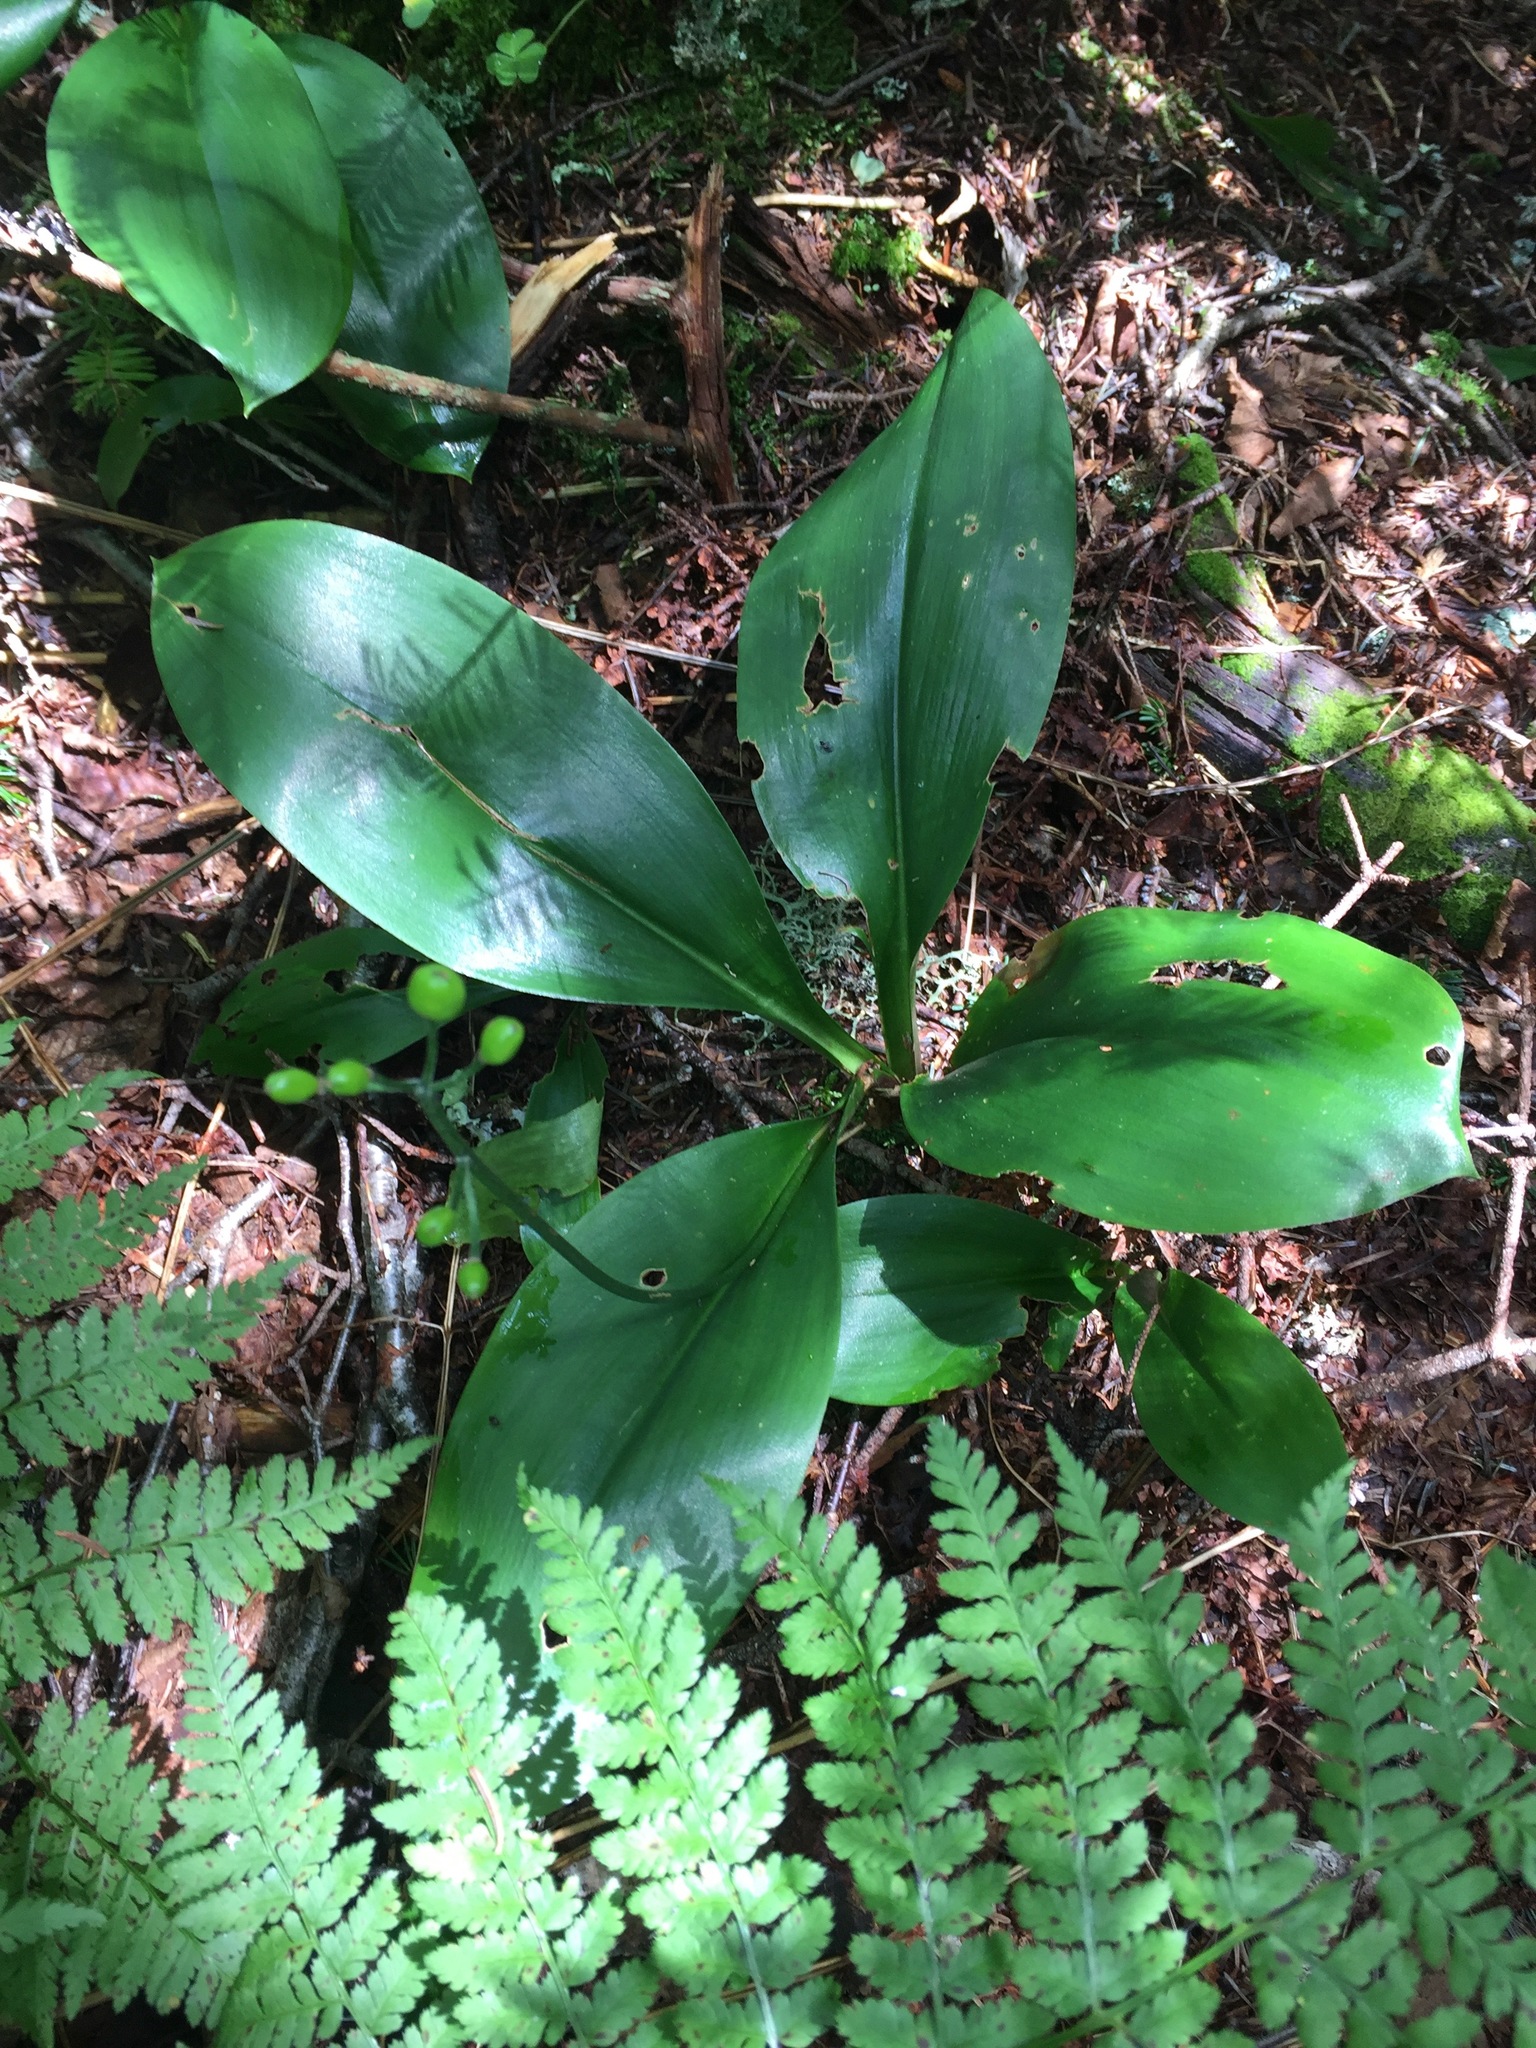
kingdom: Plantae
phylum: Tracheophyta
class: Liliopsida
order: Liliales
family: Liliaceae
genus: Clintonia
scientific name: Clintonia borealis
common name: Yellow clintonia
